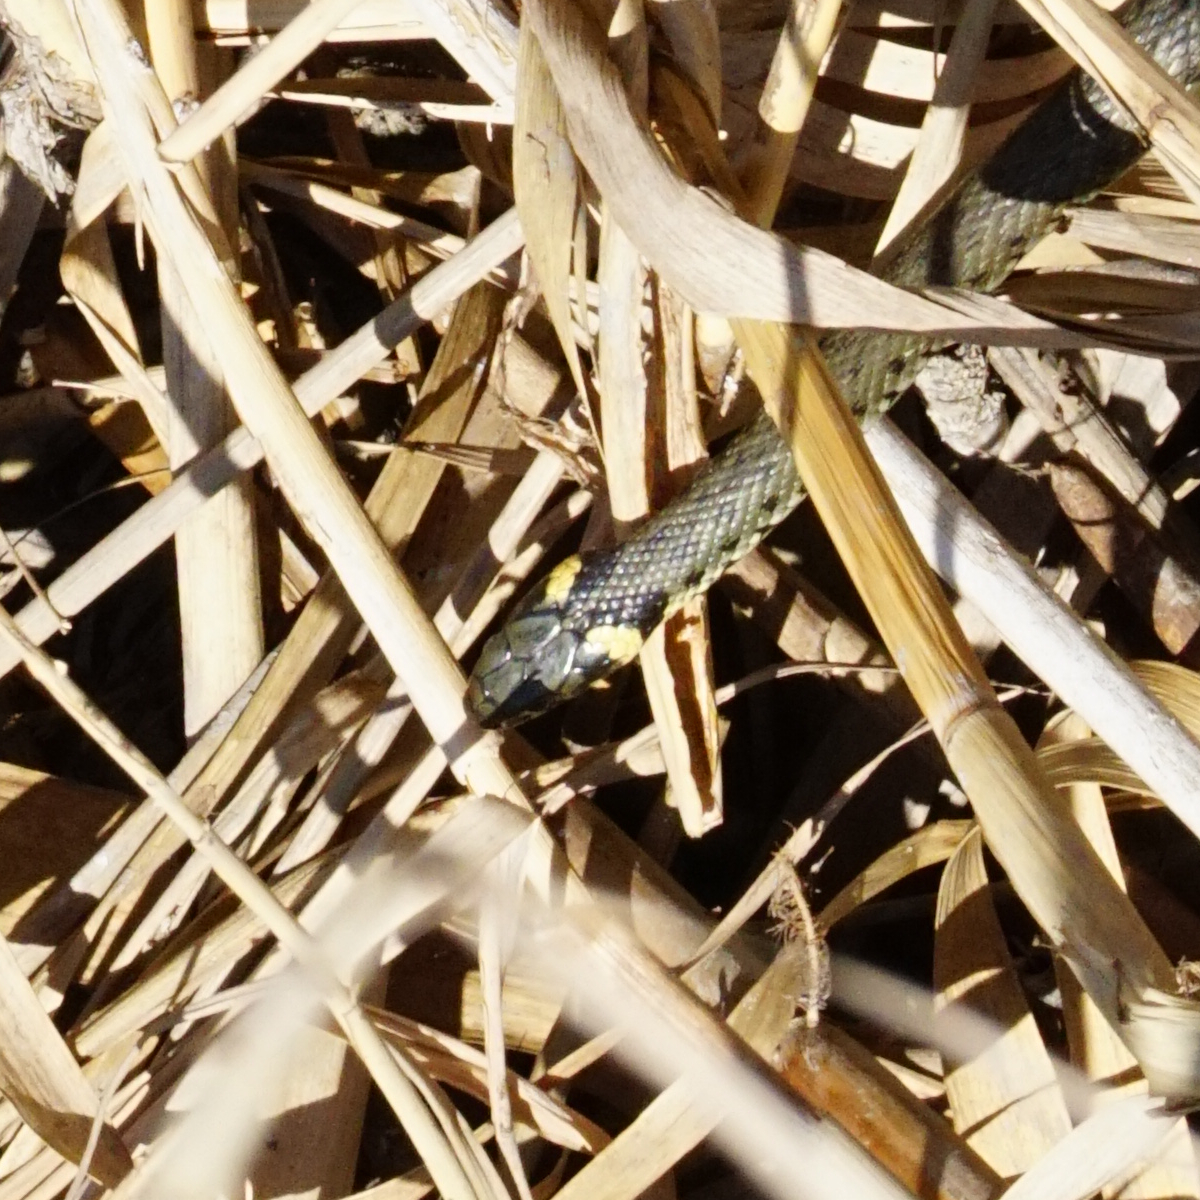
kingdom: Animalia
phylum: Chordata
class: Squamata
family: Colubridae
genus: Natrix
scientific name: Natrix natrix
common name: Grass snake
